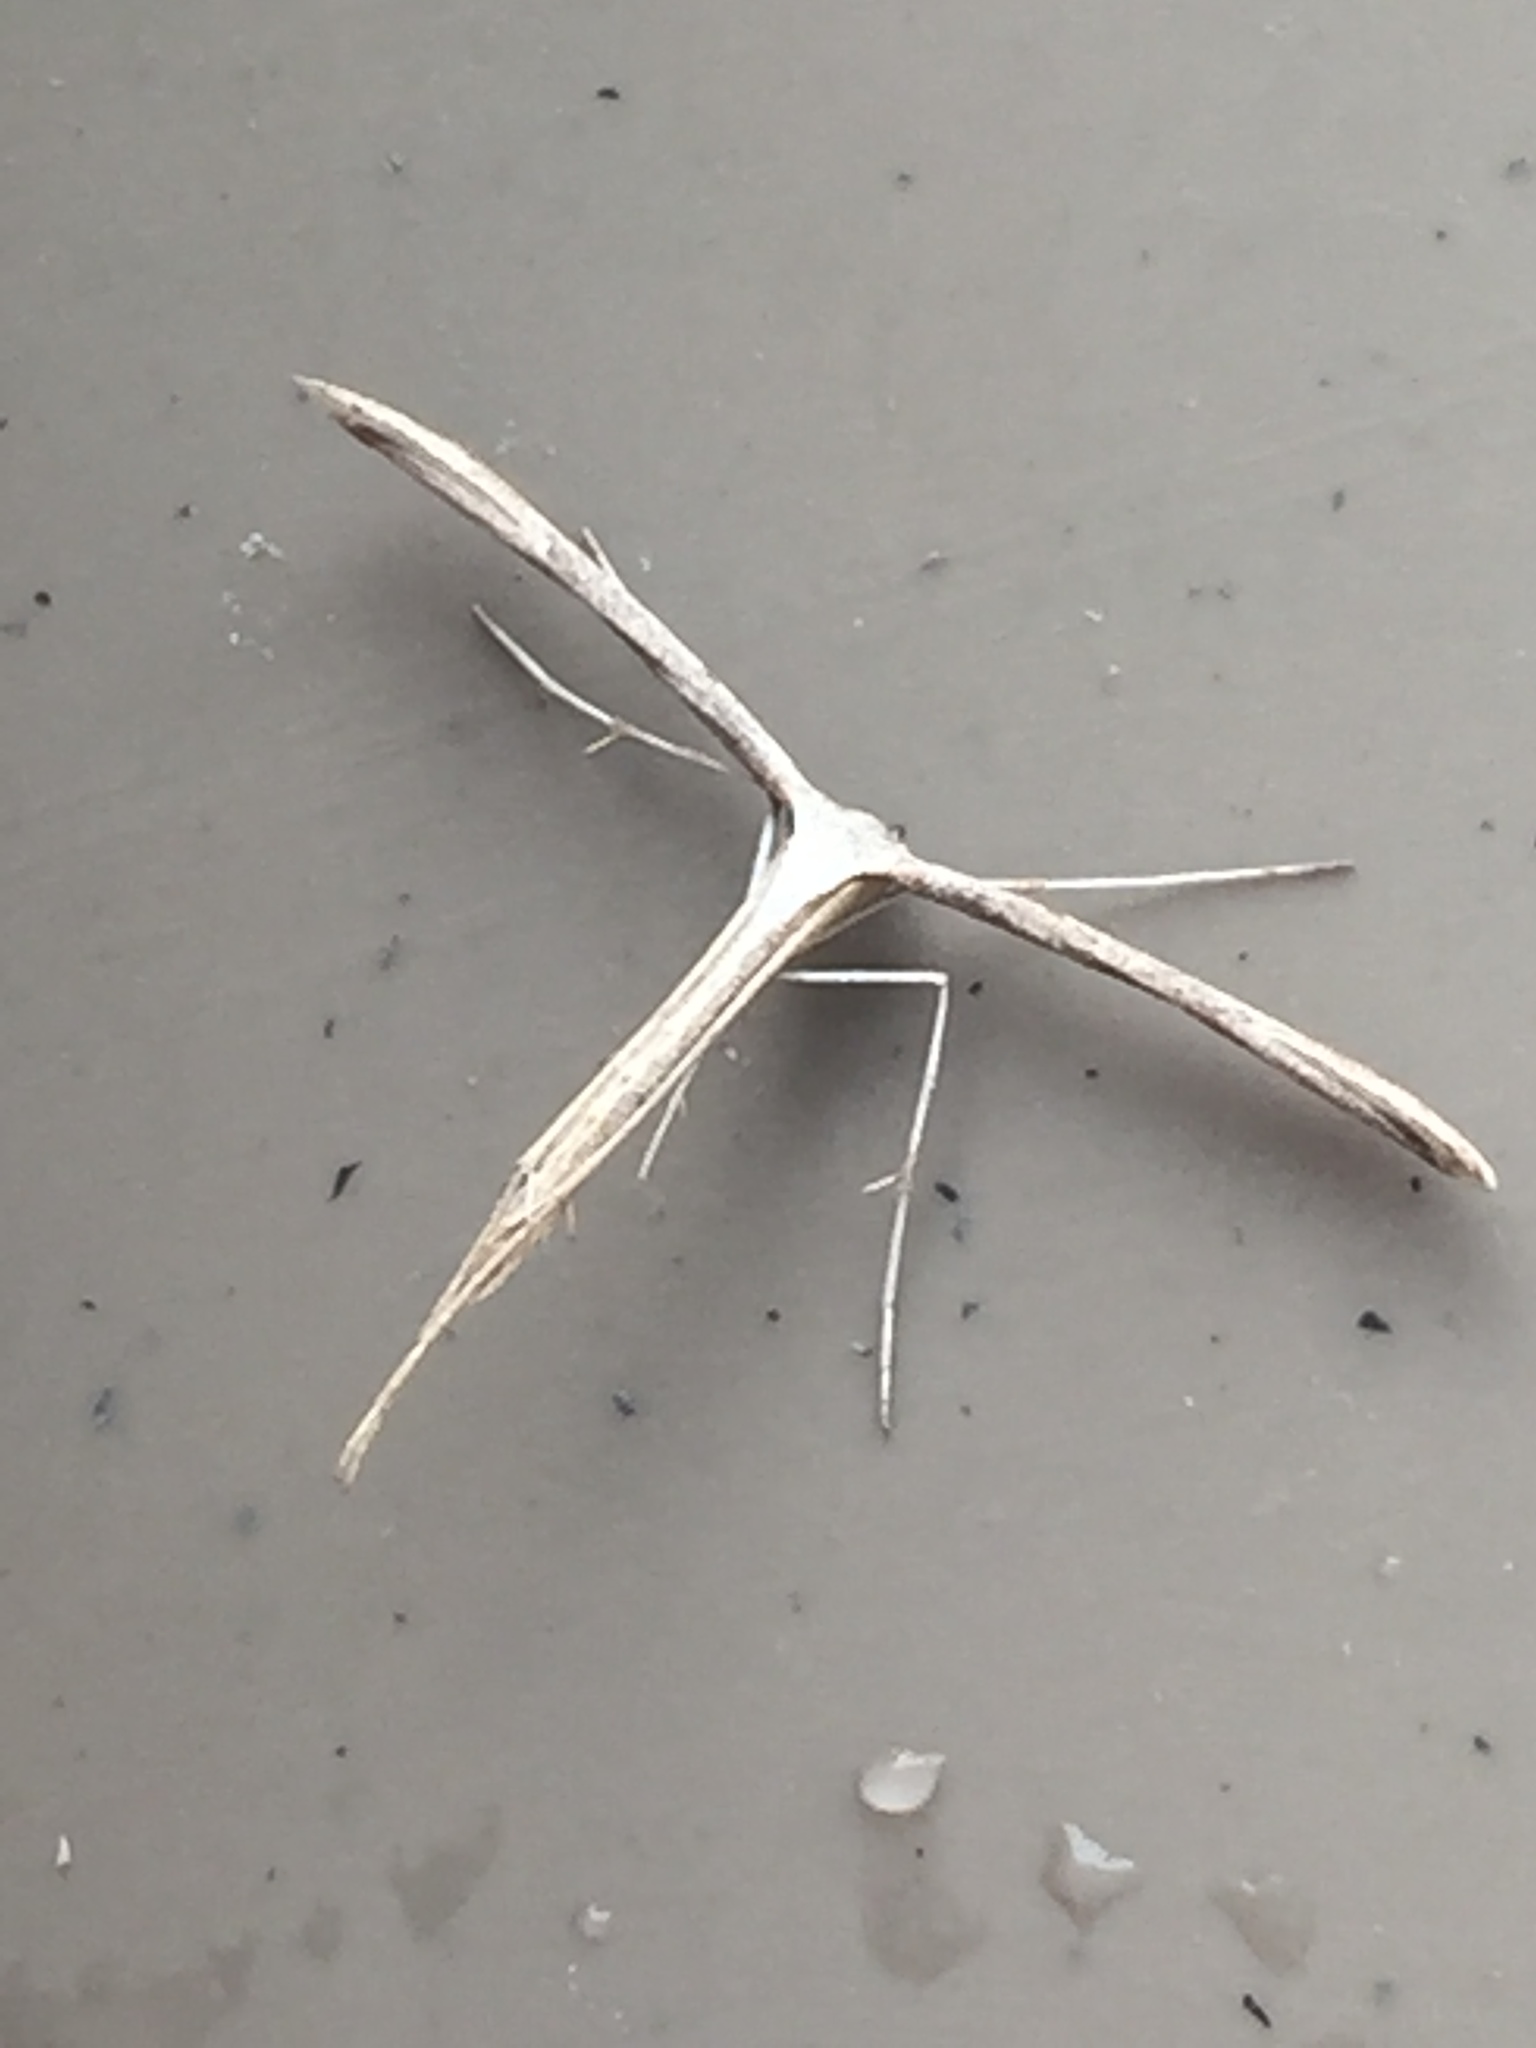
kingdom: Animalia
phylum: Arthropoda
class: Insecta
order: Lepidoptera
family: Pterophoridae
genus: Emmelina
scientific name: Emmelina monodactyla
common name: Common plume
